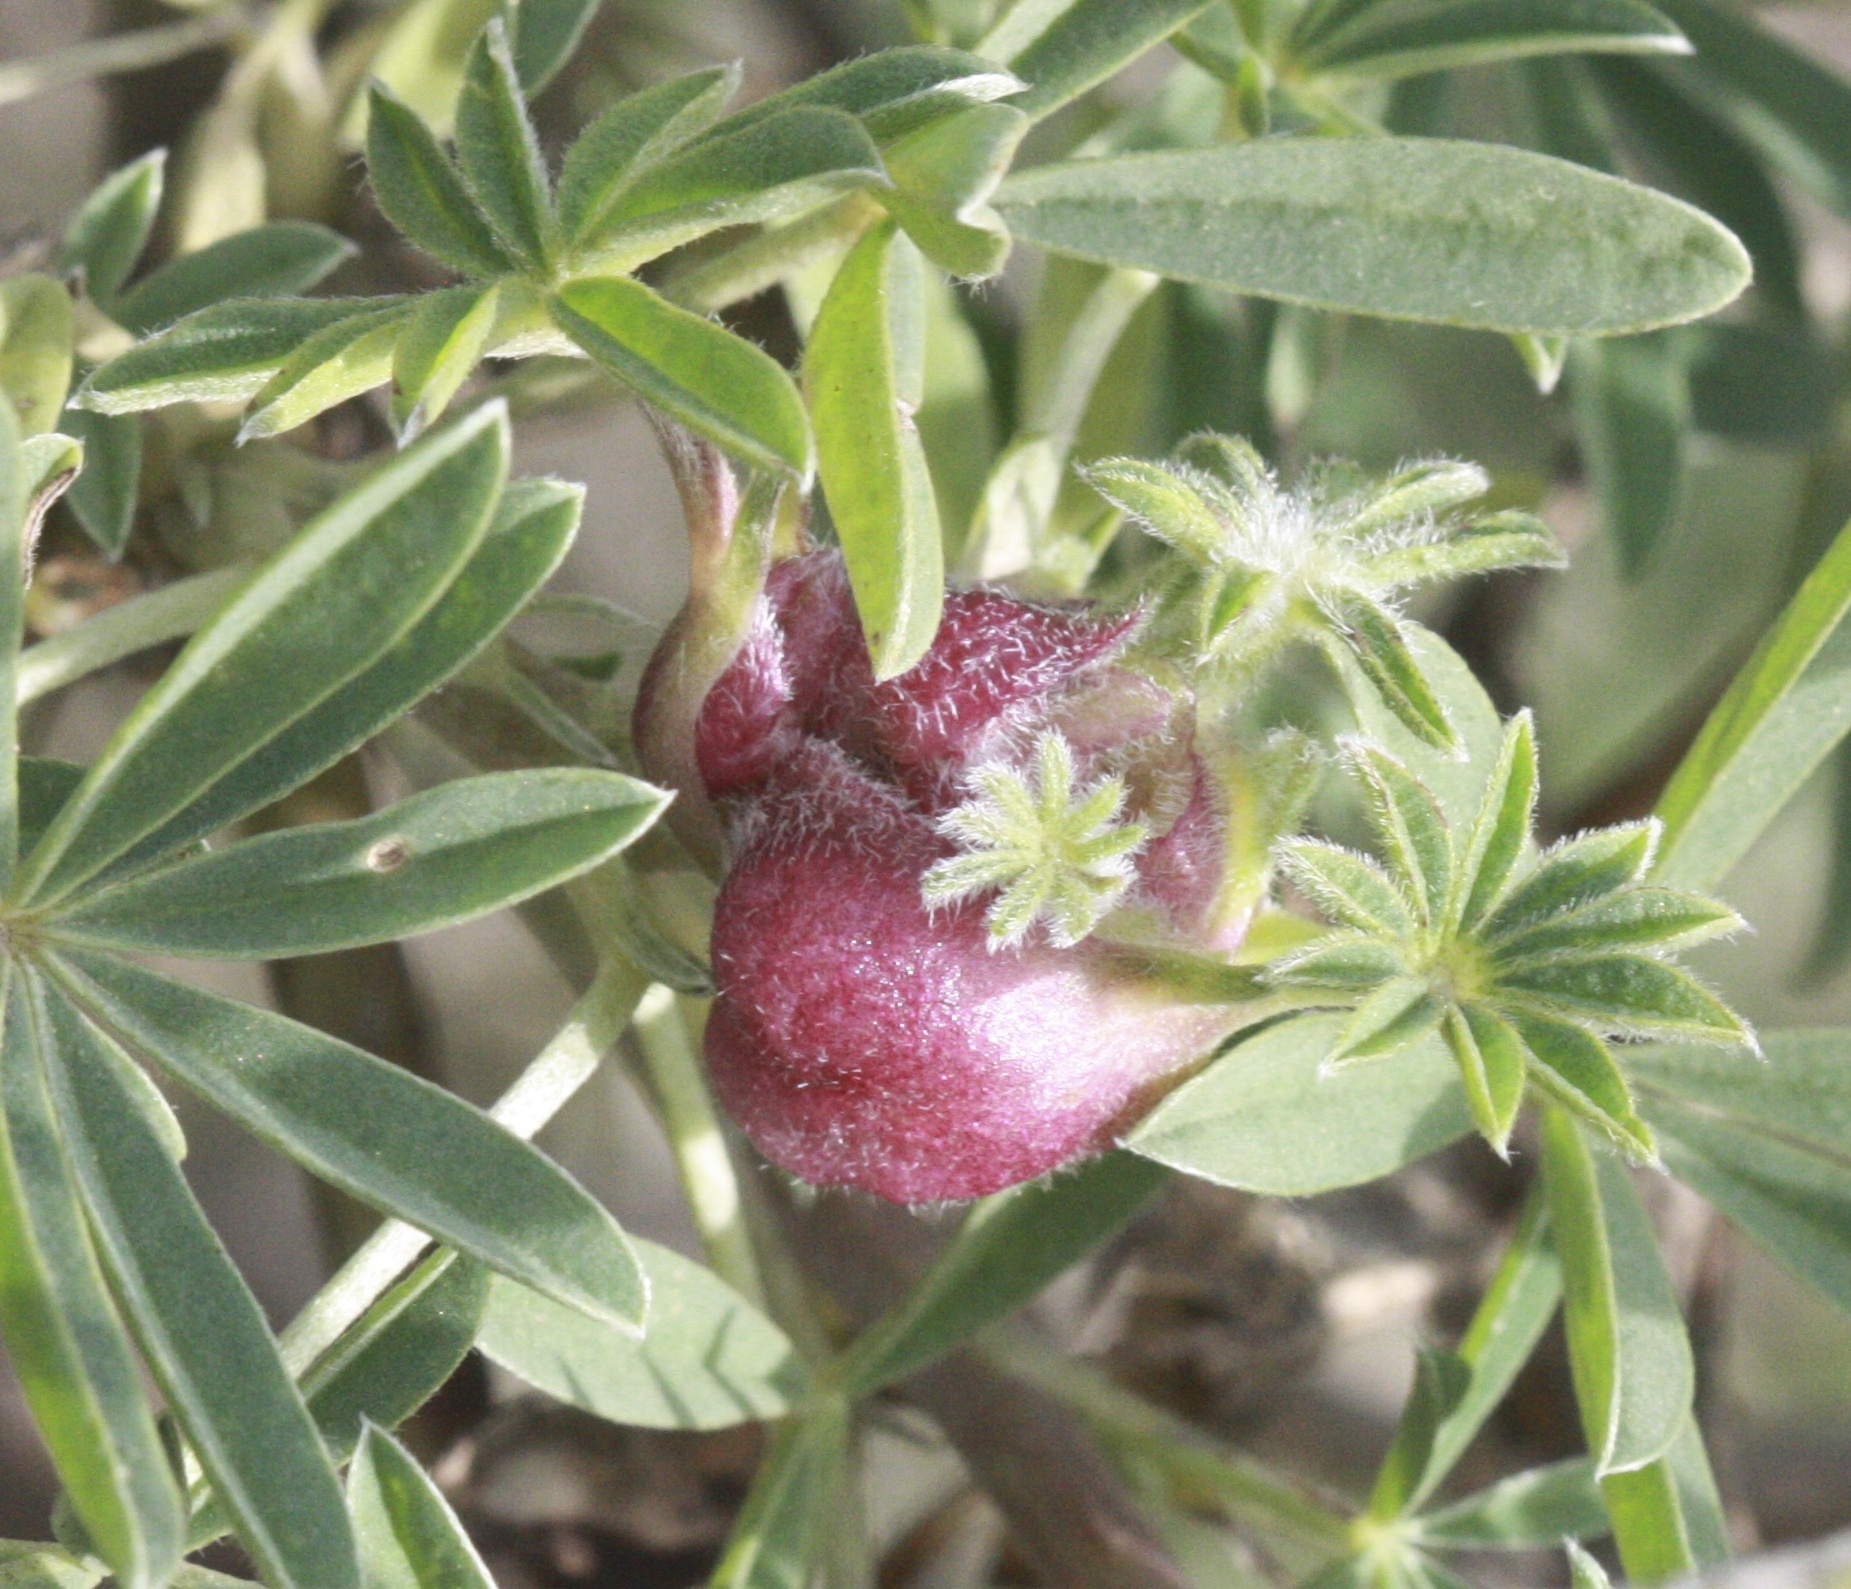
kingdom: Animalia
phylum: Arthropoda
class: Insecta
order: Diptera
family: Cecidomyiidae
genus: Dasineura
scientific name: Dasineura lupini
